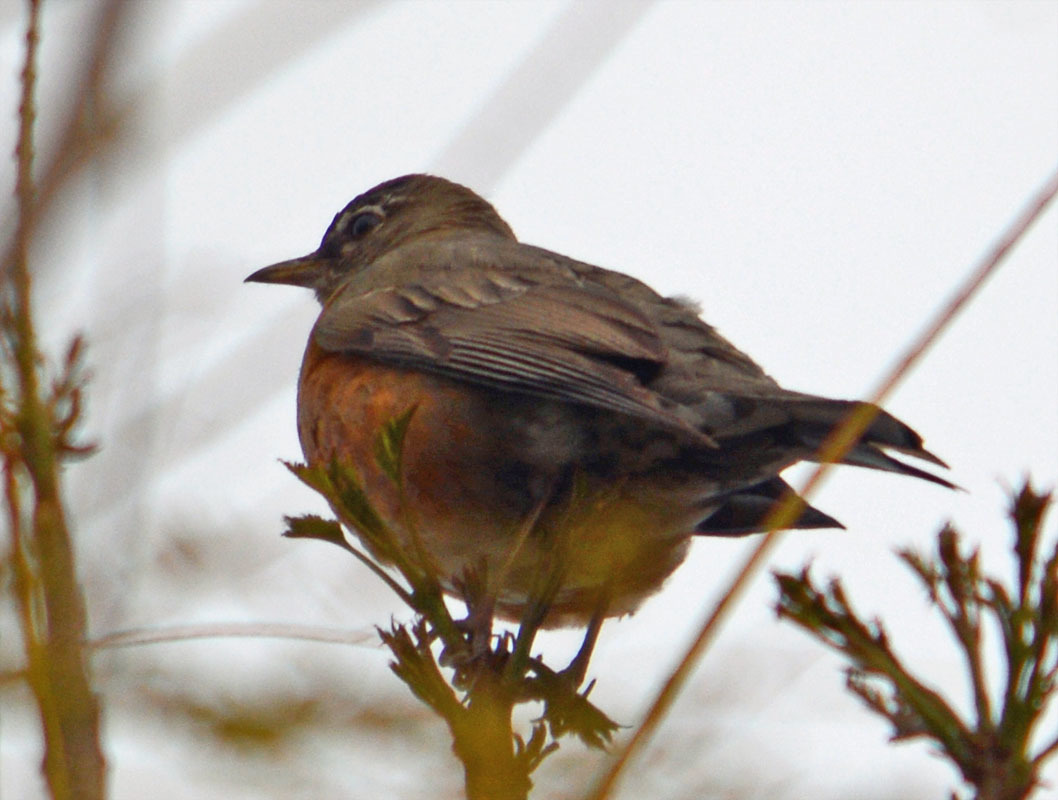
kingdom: Animalia
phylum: Chordata
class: Aves
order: Passeriformes
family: Turdidae
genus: Turdus
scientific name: Turdus migratorius
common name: American robin
